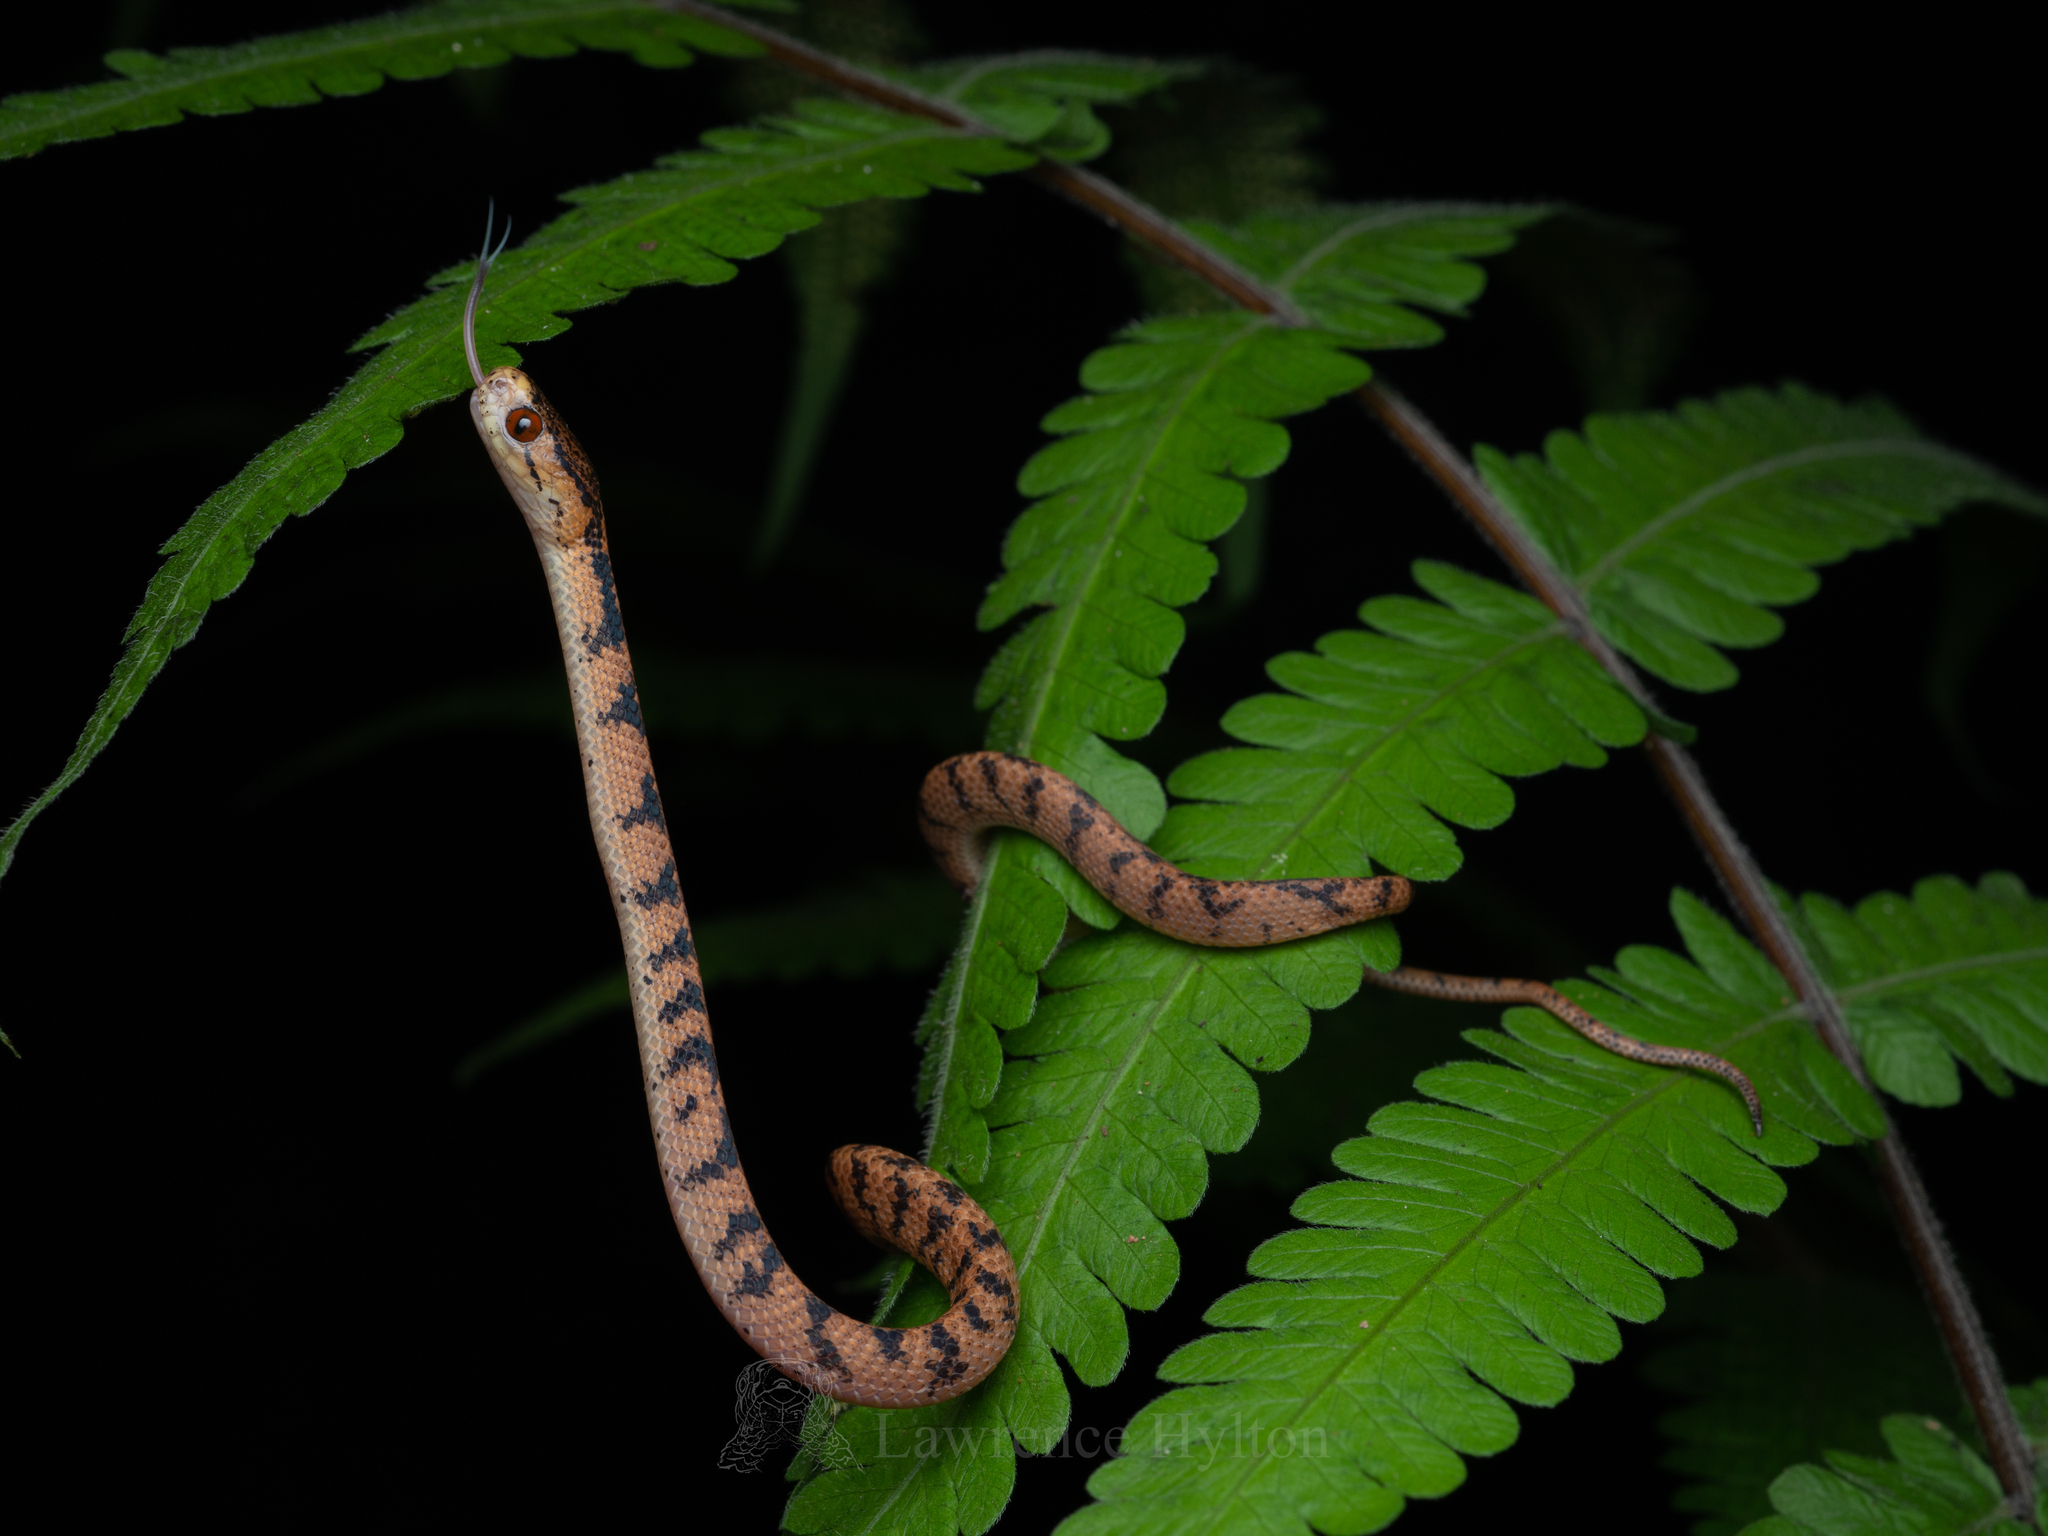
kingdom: Animalia
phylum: Chordata
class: Squamata
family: Pareidae
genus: Pareas
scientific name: Pareas chinensis
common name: Chinese slug snake
